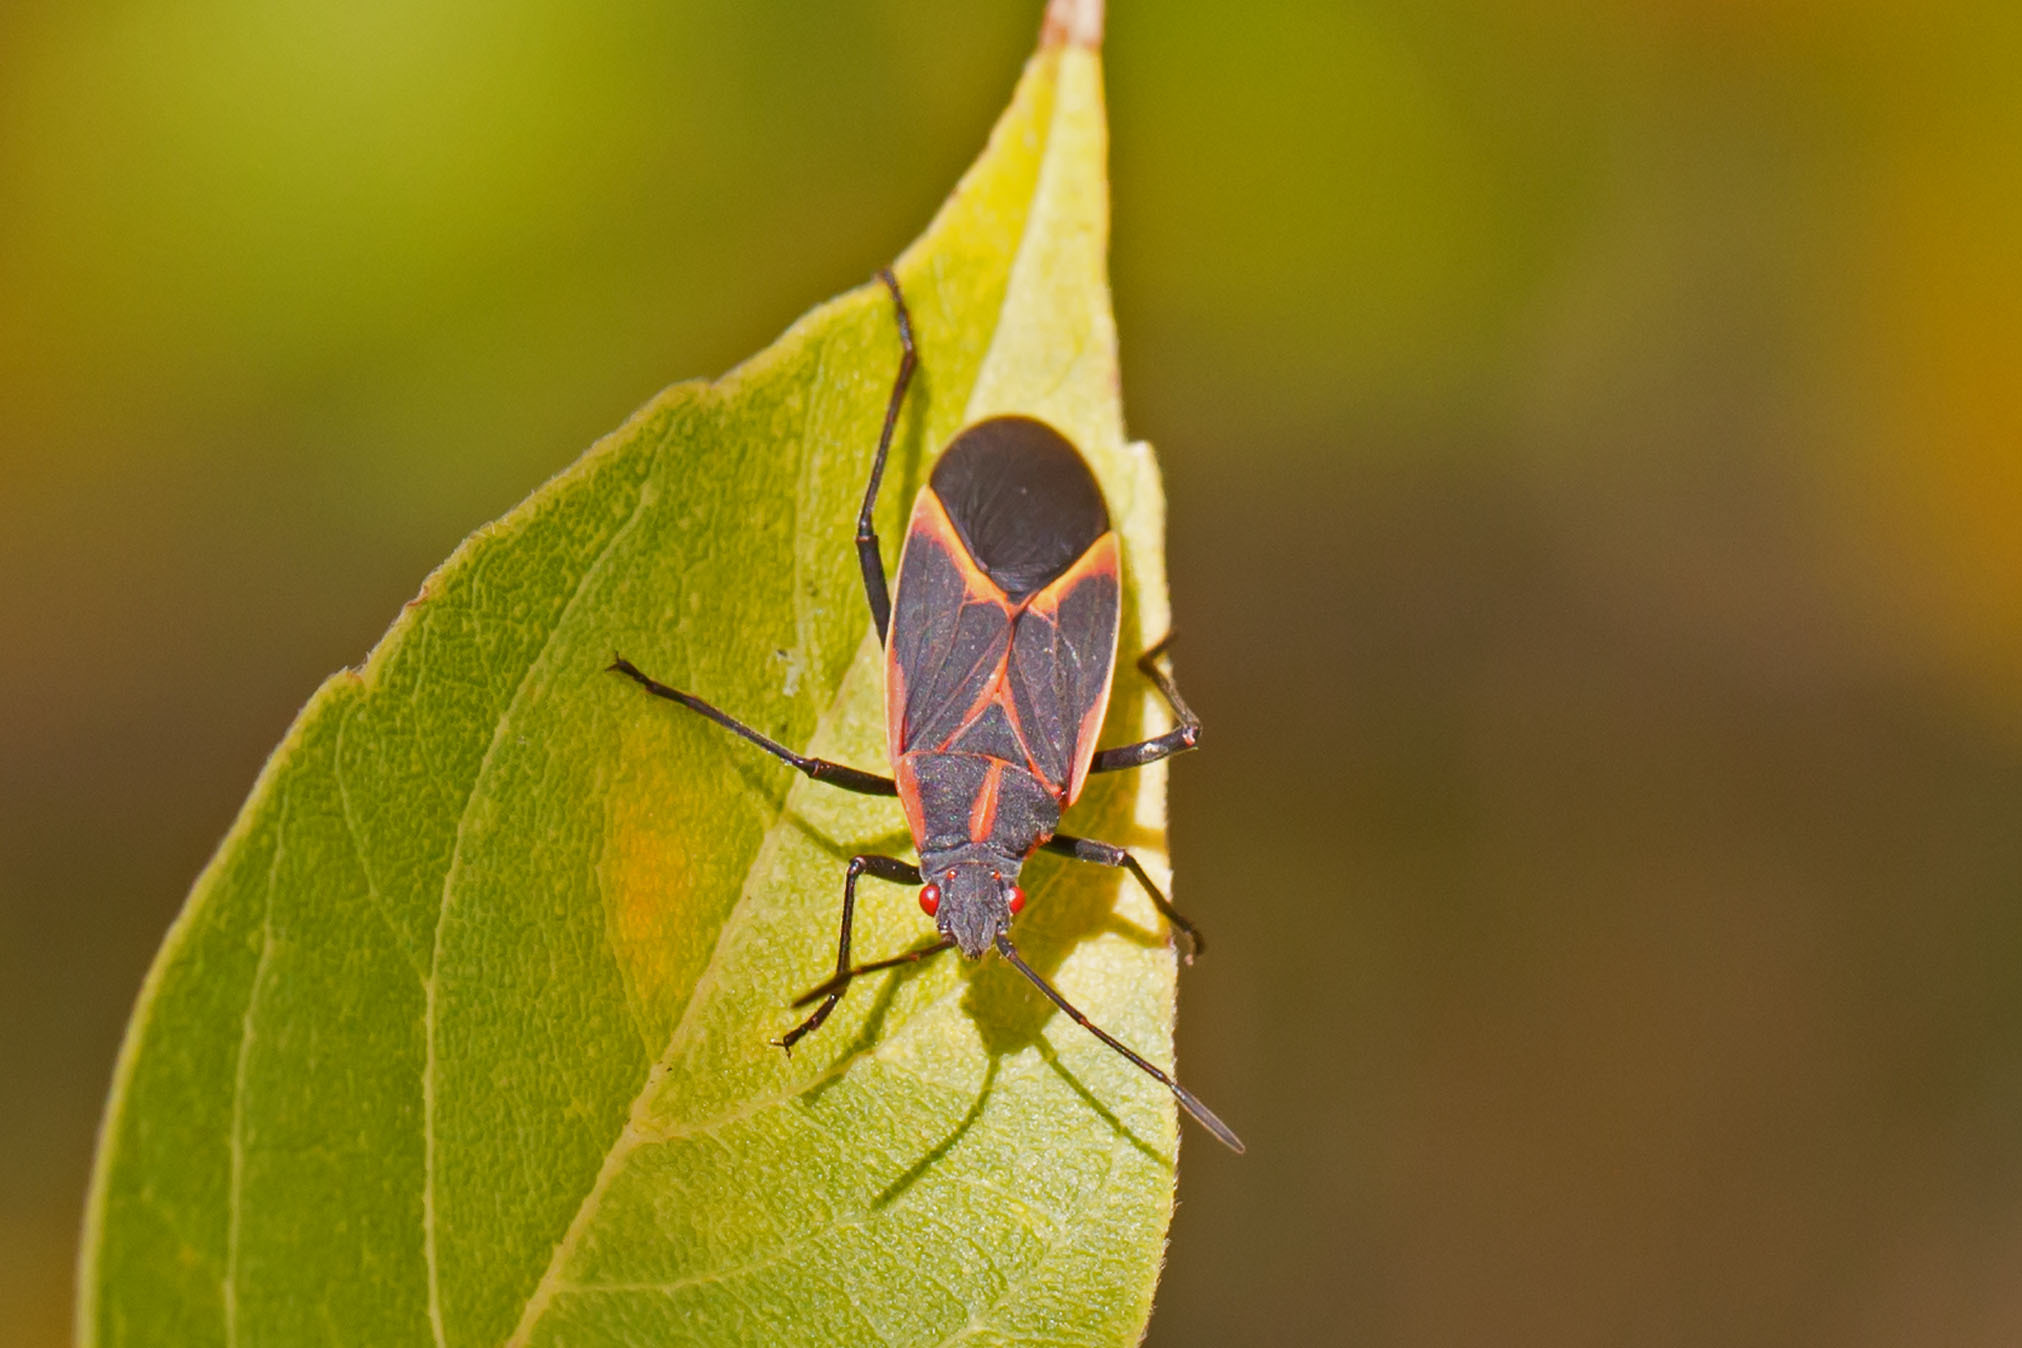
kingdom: Animalia
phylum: Arthropoda
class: Insecta
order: Hemiptera
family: Rhopalidae
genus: Boisea
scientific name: Boisea trivittata
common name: Boxelder bug
